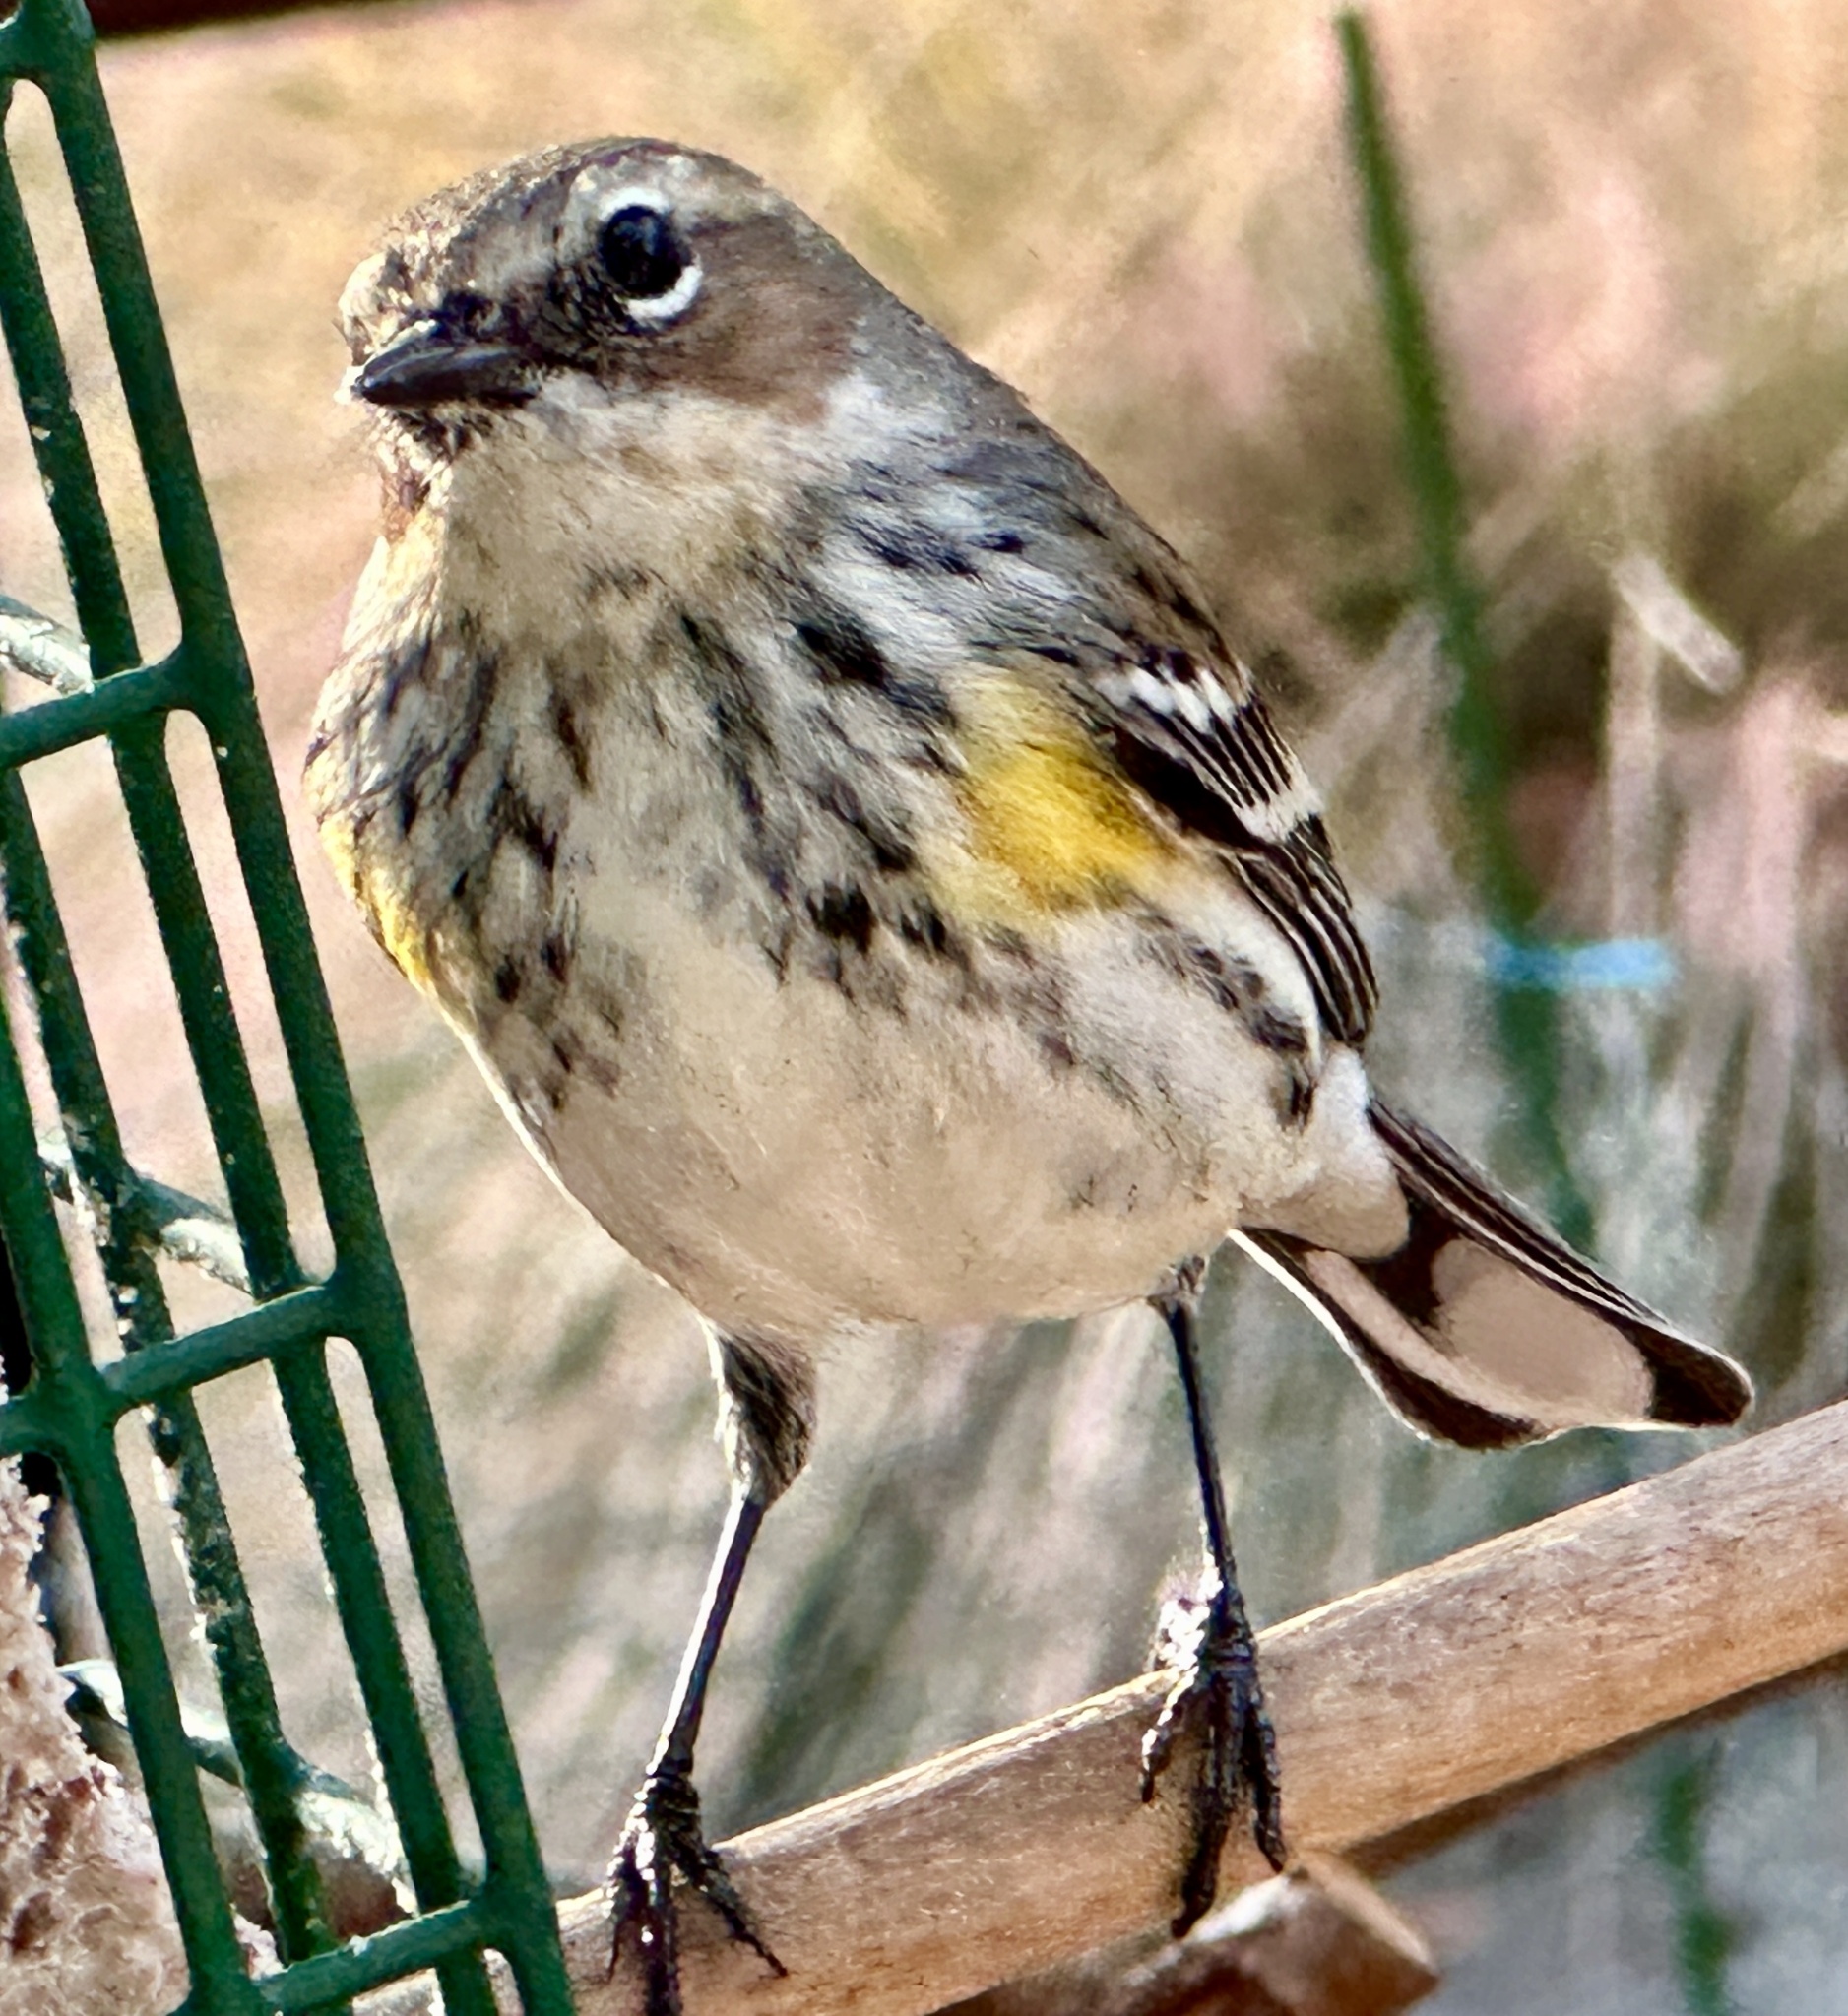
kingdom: Animalia
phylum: Chordata
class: Aves
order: Passeriformes
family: Parulidae
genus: Setophaga
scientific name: Setophaga coronata
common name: Myrtle warbler
